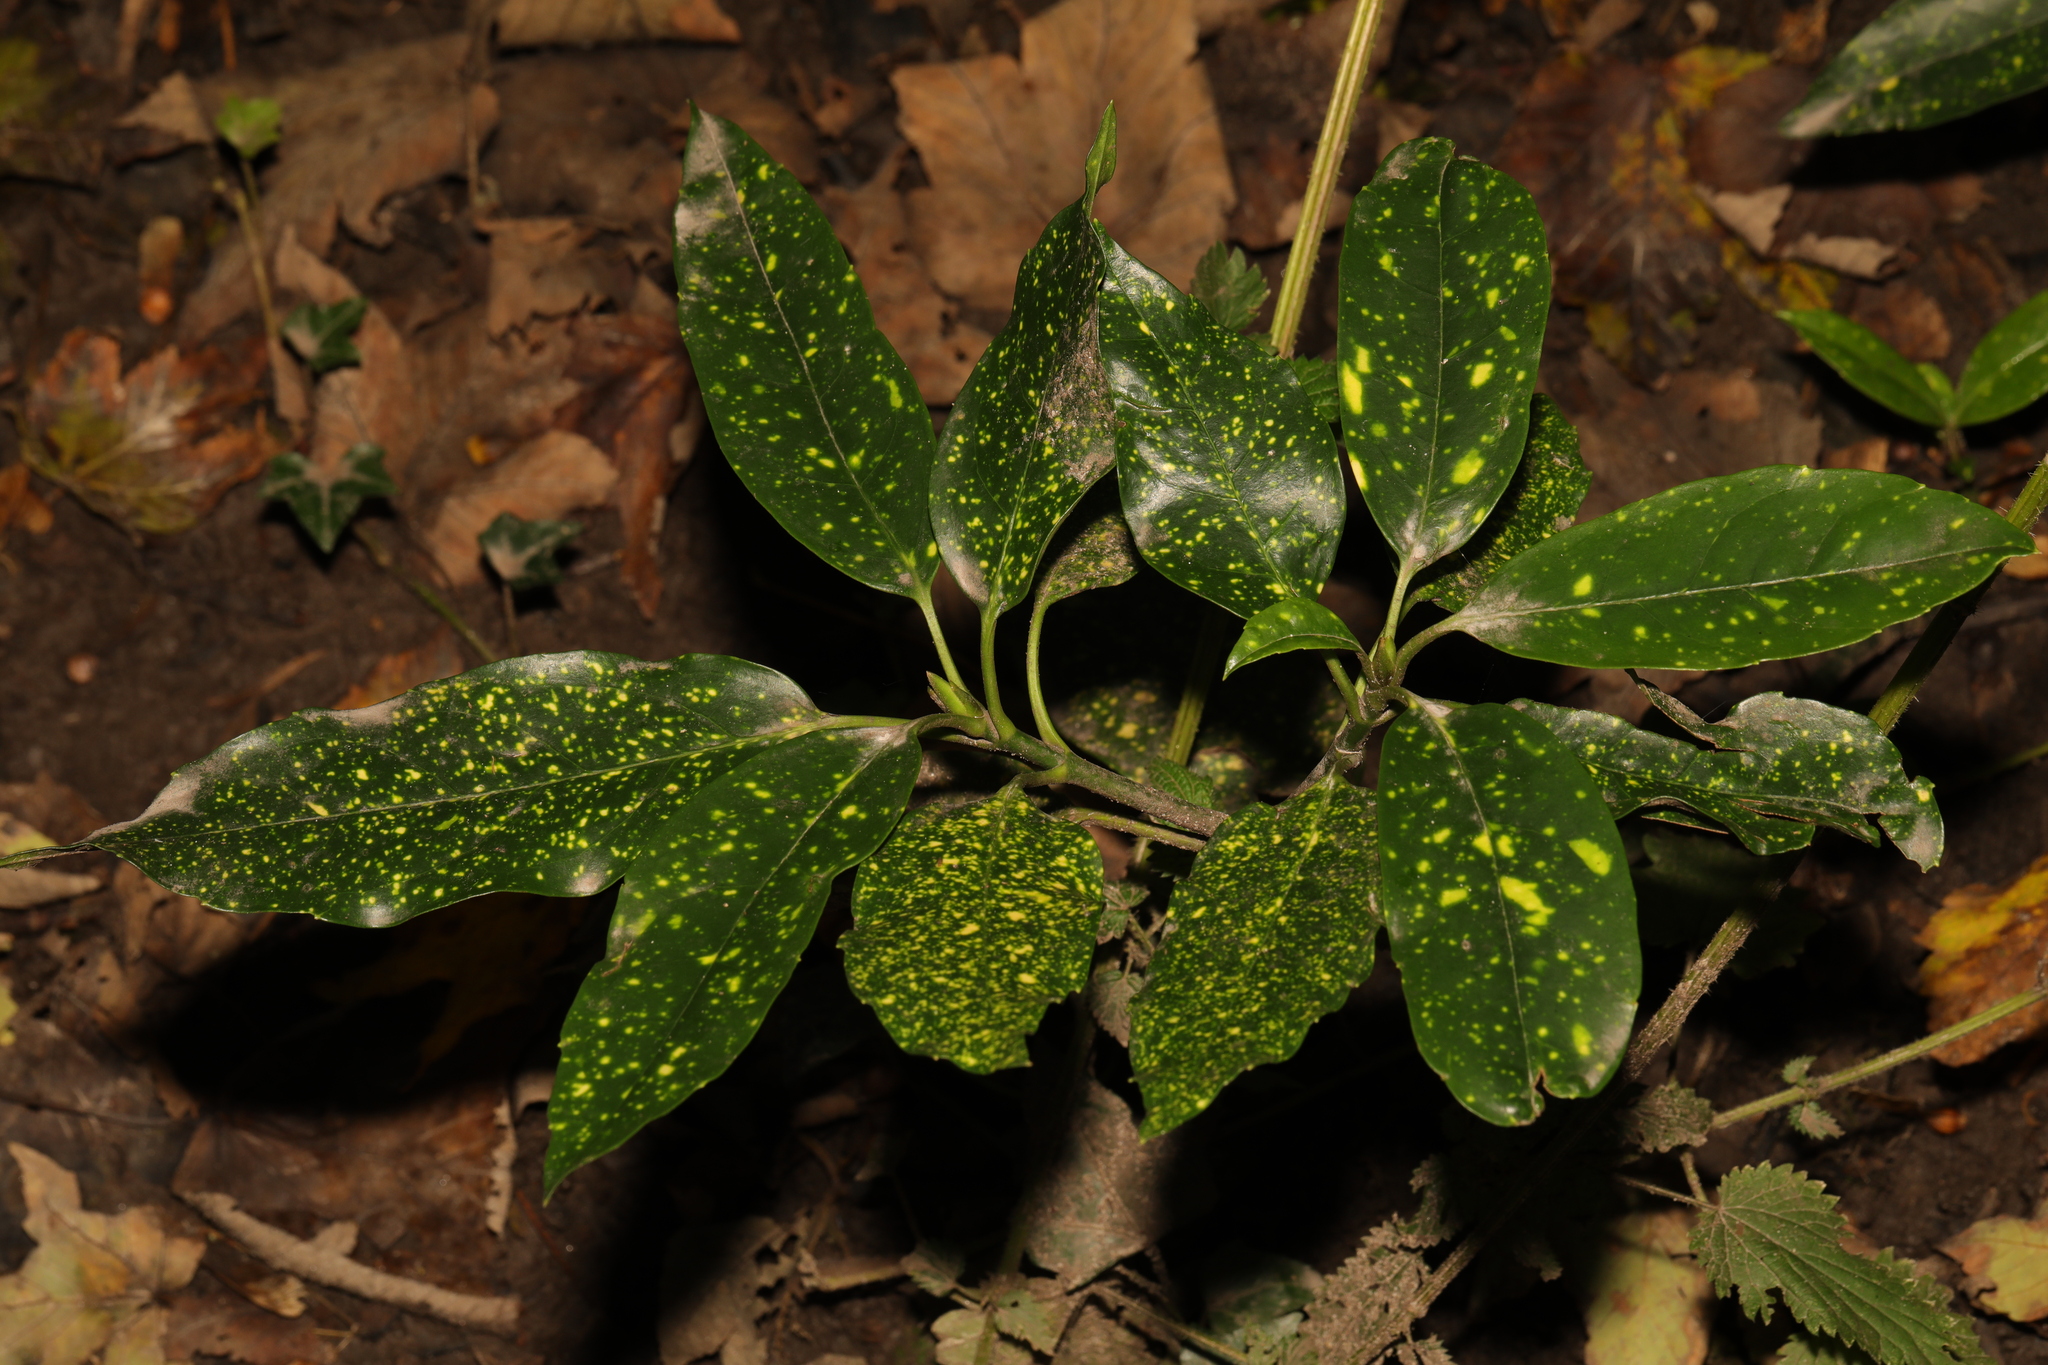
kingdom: Plantae
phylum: Tracheophyta
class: Magnoliopsida
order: Garryales
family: Garryaceae
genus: Aucuba
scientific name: Aucuba japonica
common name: Spotted-laurel
